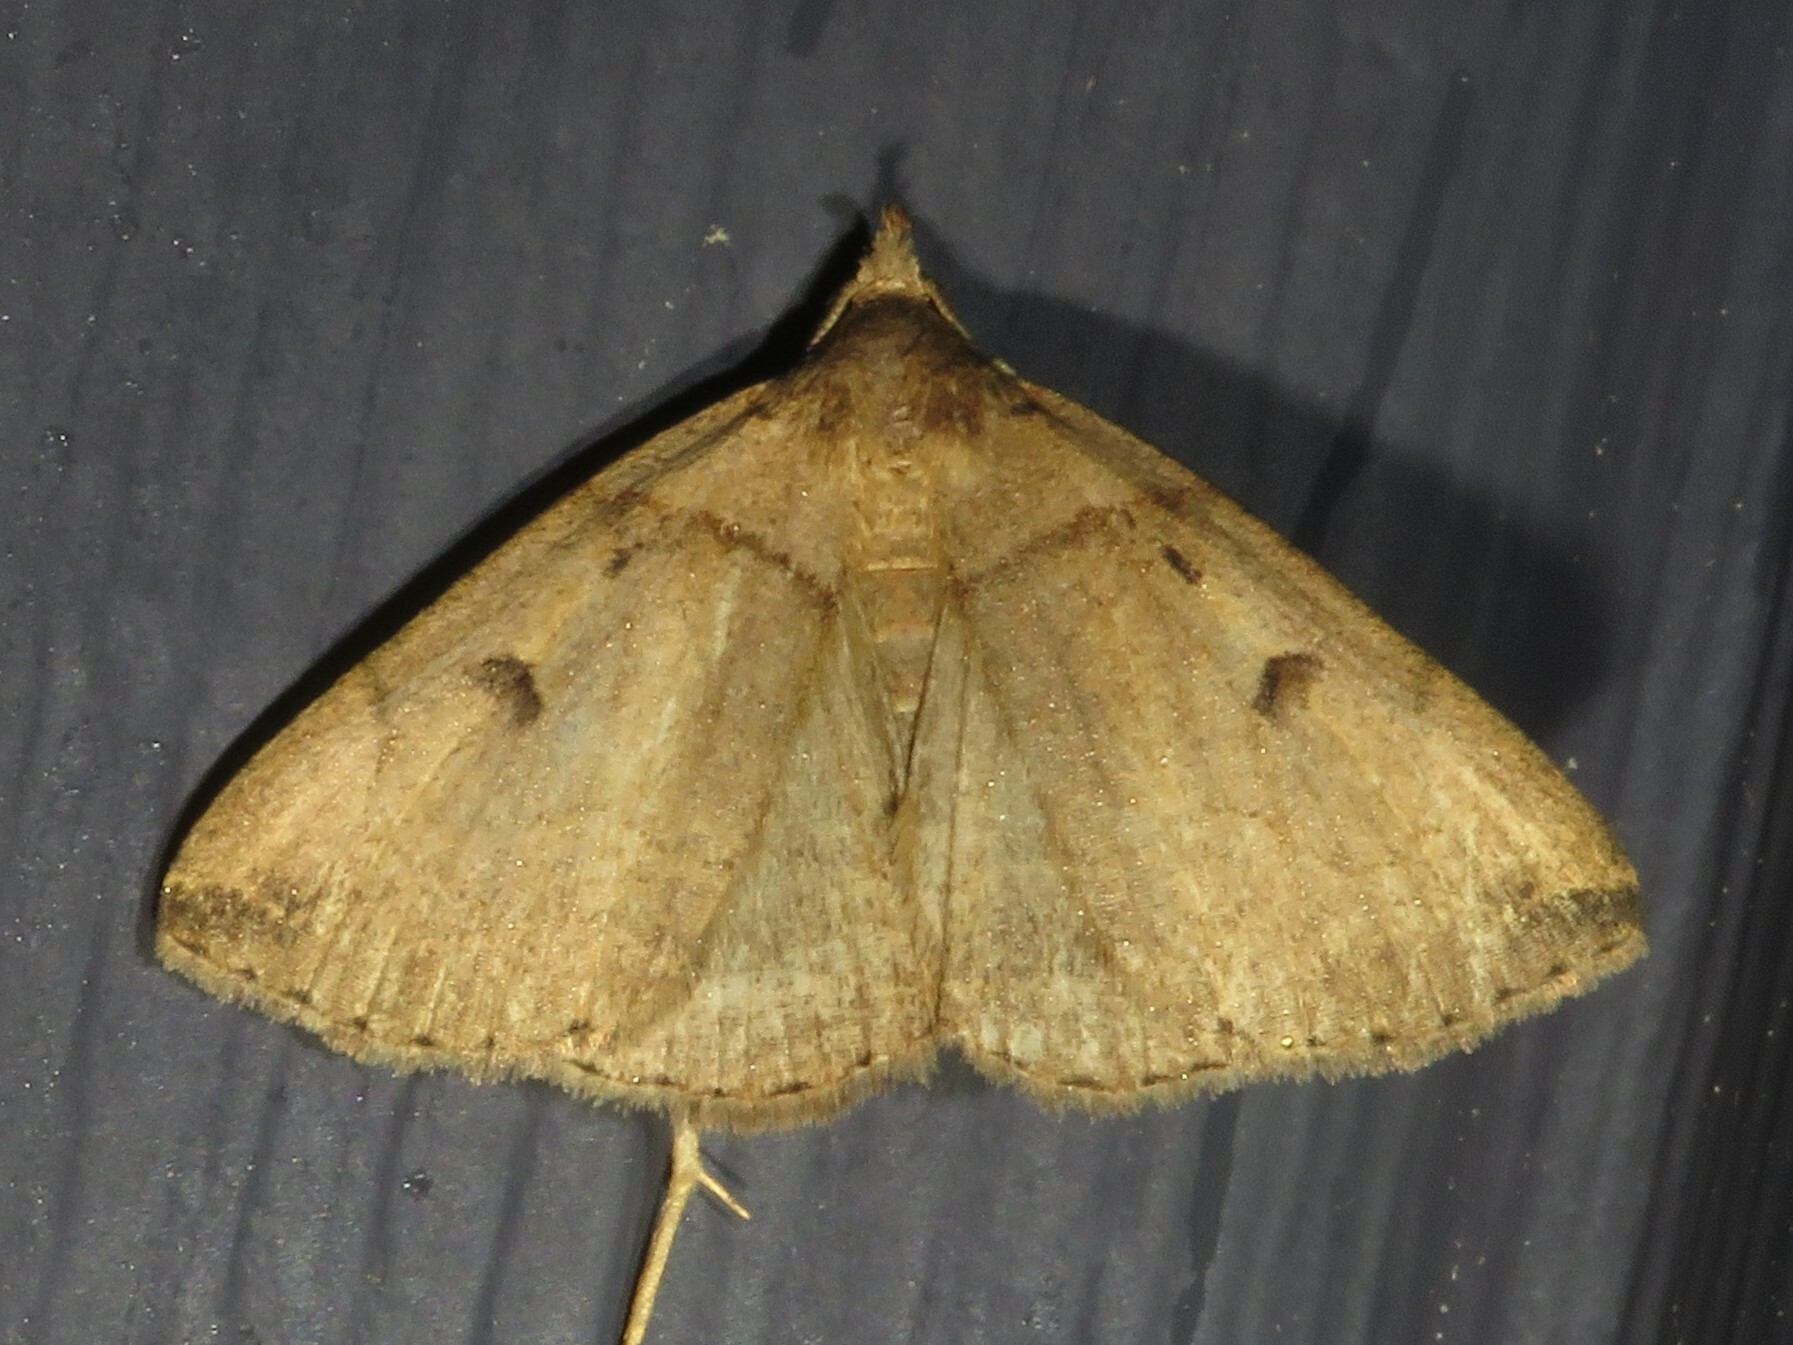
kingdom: Animalia
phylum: Arthropoda
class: Insecta
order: Lepidoptera
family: Erebidae
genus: Zanclognatha
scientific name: Zanclognatha laevigata
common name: Variable fan-foot
